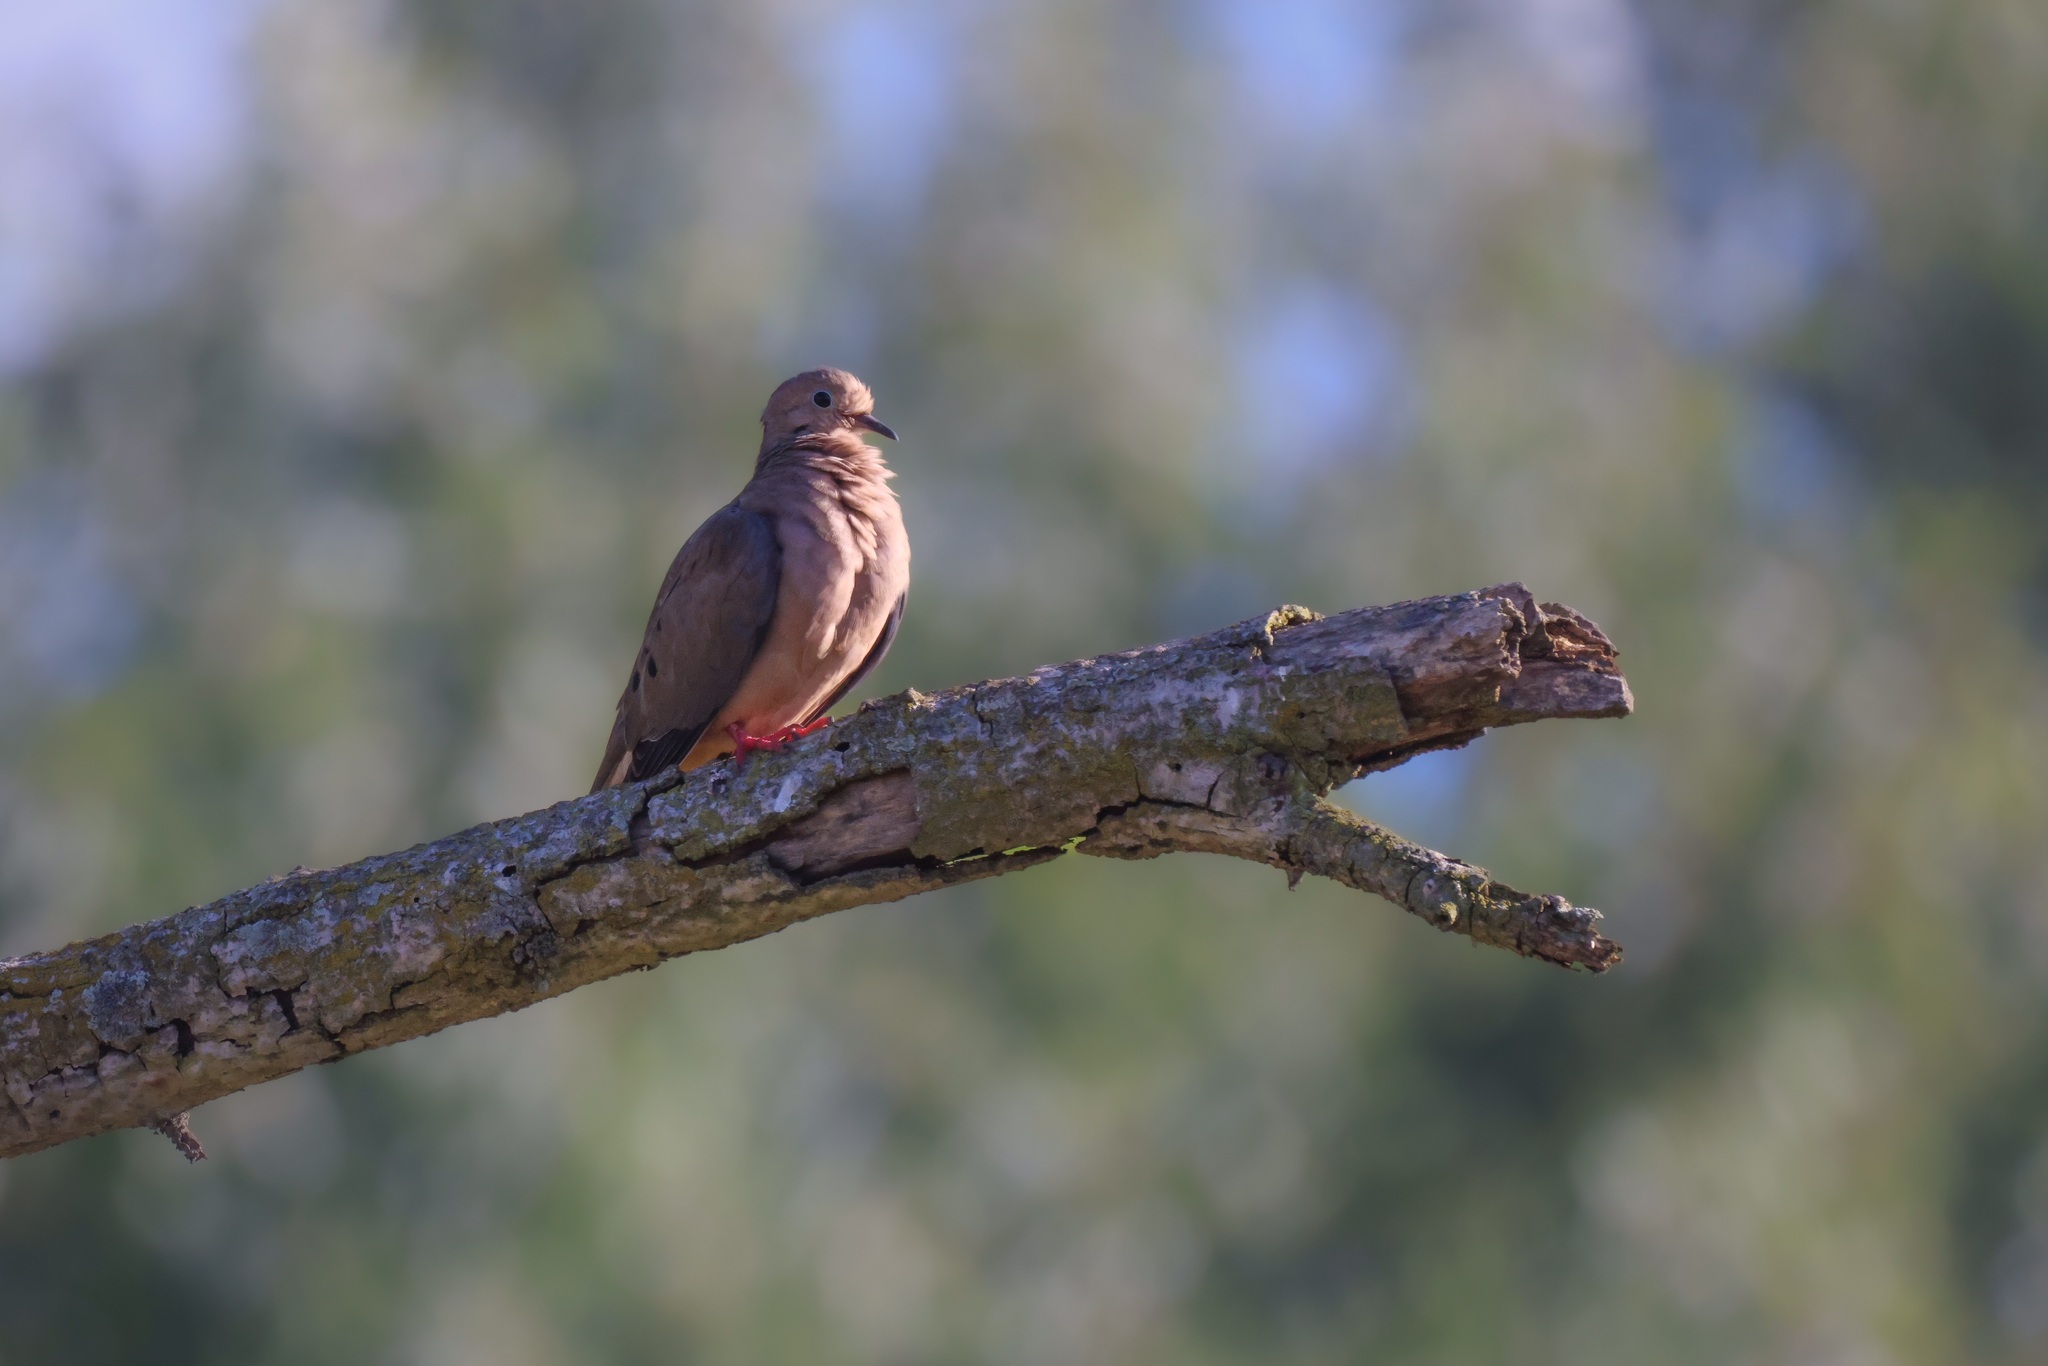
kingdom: Animalia
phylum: Chordata
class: Aves
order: Columbiformes
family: Columbidae
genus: Zenaida
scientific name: Zenaida macroura
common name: Mourning dove
